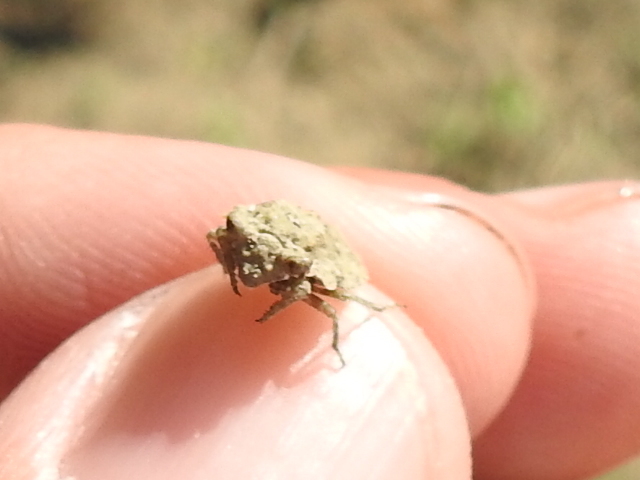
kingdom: Animalia
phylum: Arthropoda
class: Insecta
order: Hemiptera
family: Gelastocoridae
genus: Gelastocoris
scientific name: Gelastocoris oculatus
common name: Toad bug
